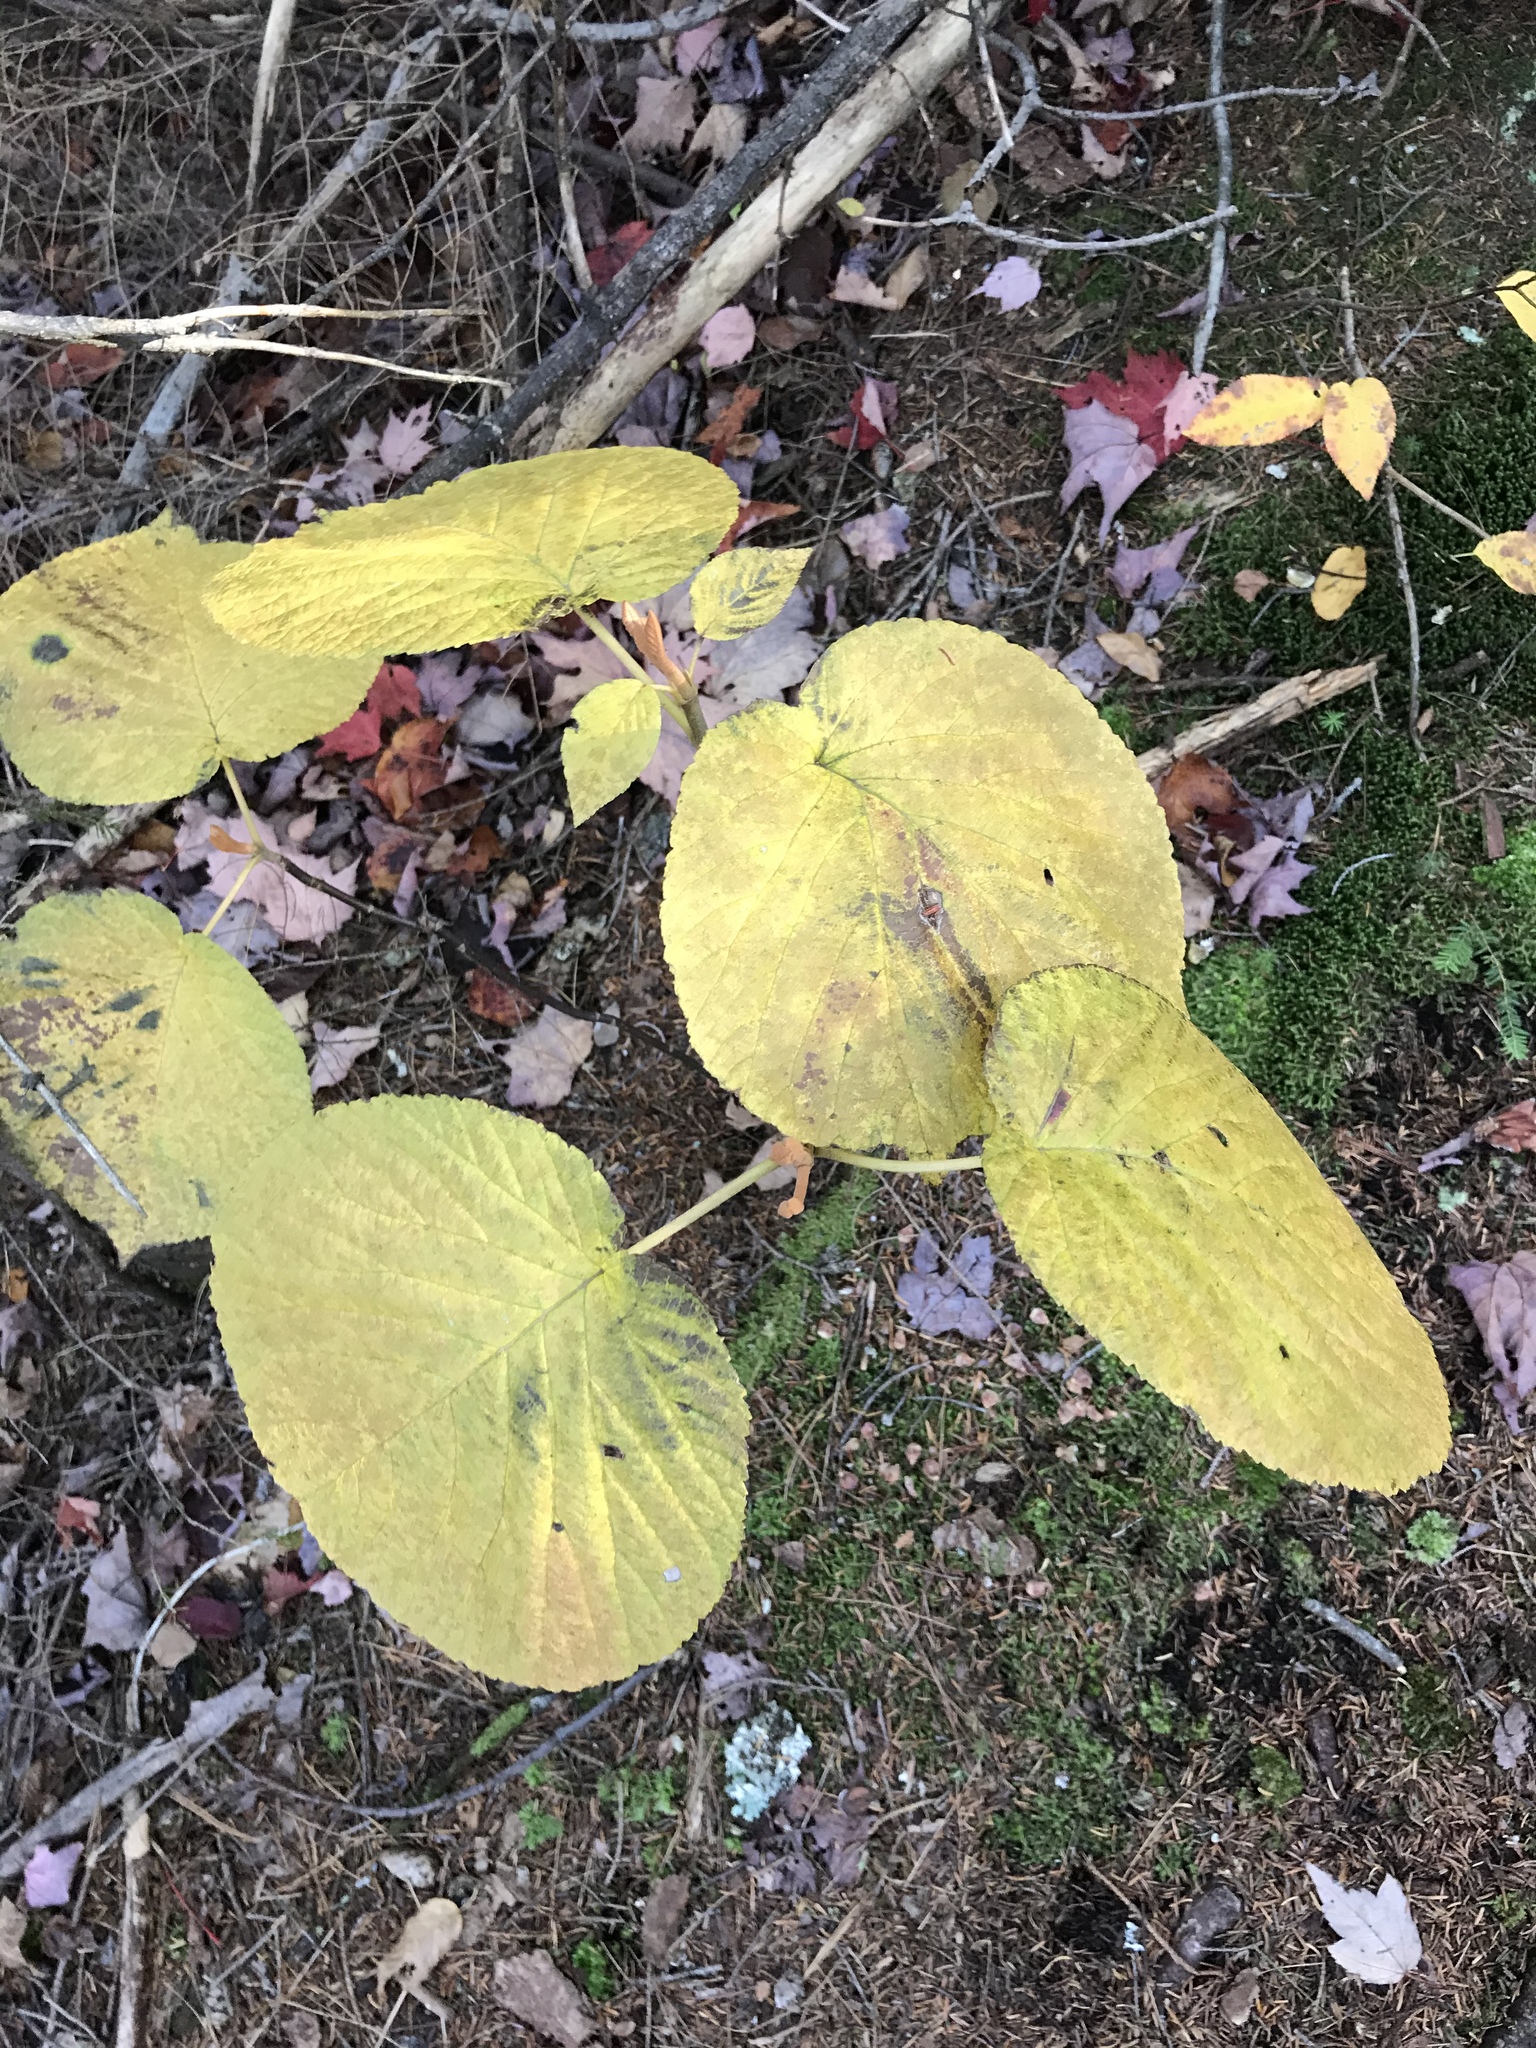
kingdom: Plantae
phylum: Tracheophyta
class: Magnoliopsida
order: Dipsacales
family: Viburnaceae
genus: Viburnum
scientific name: Viburnum lantanoides
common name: Hobblebush
